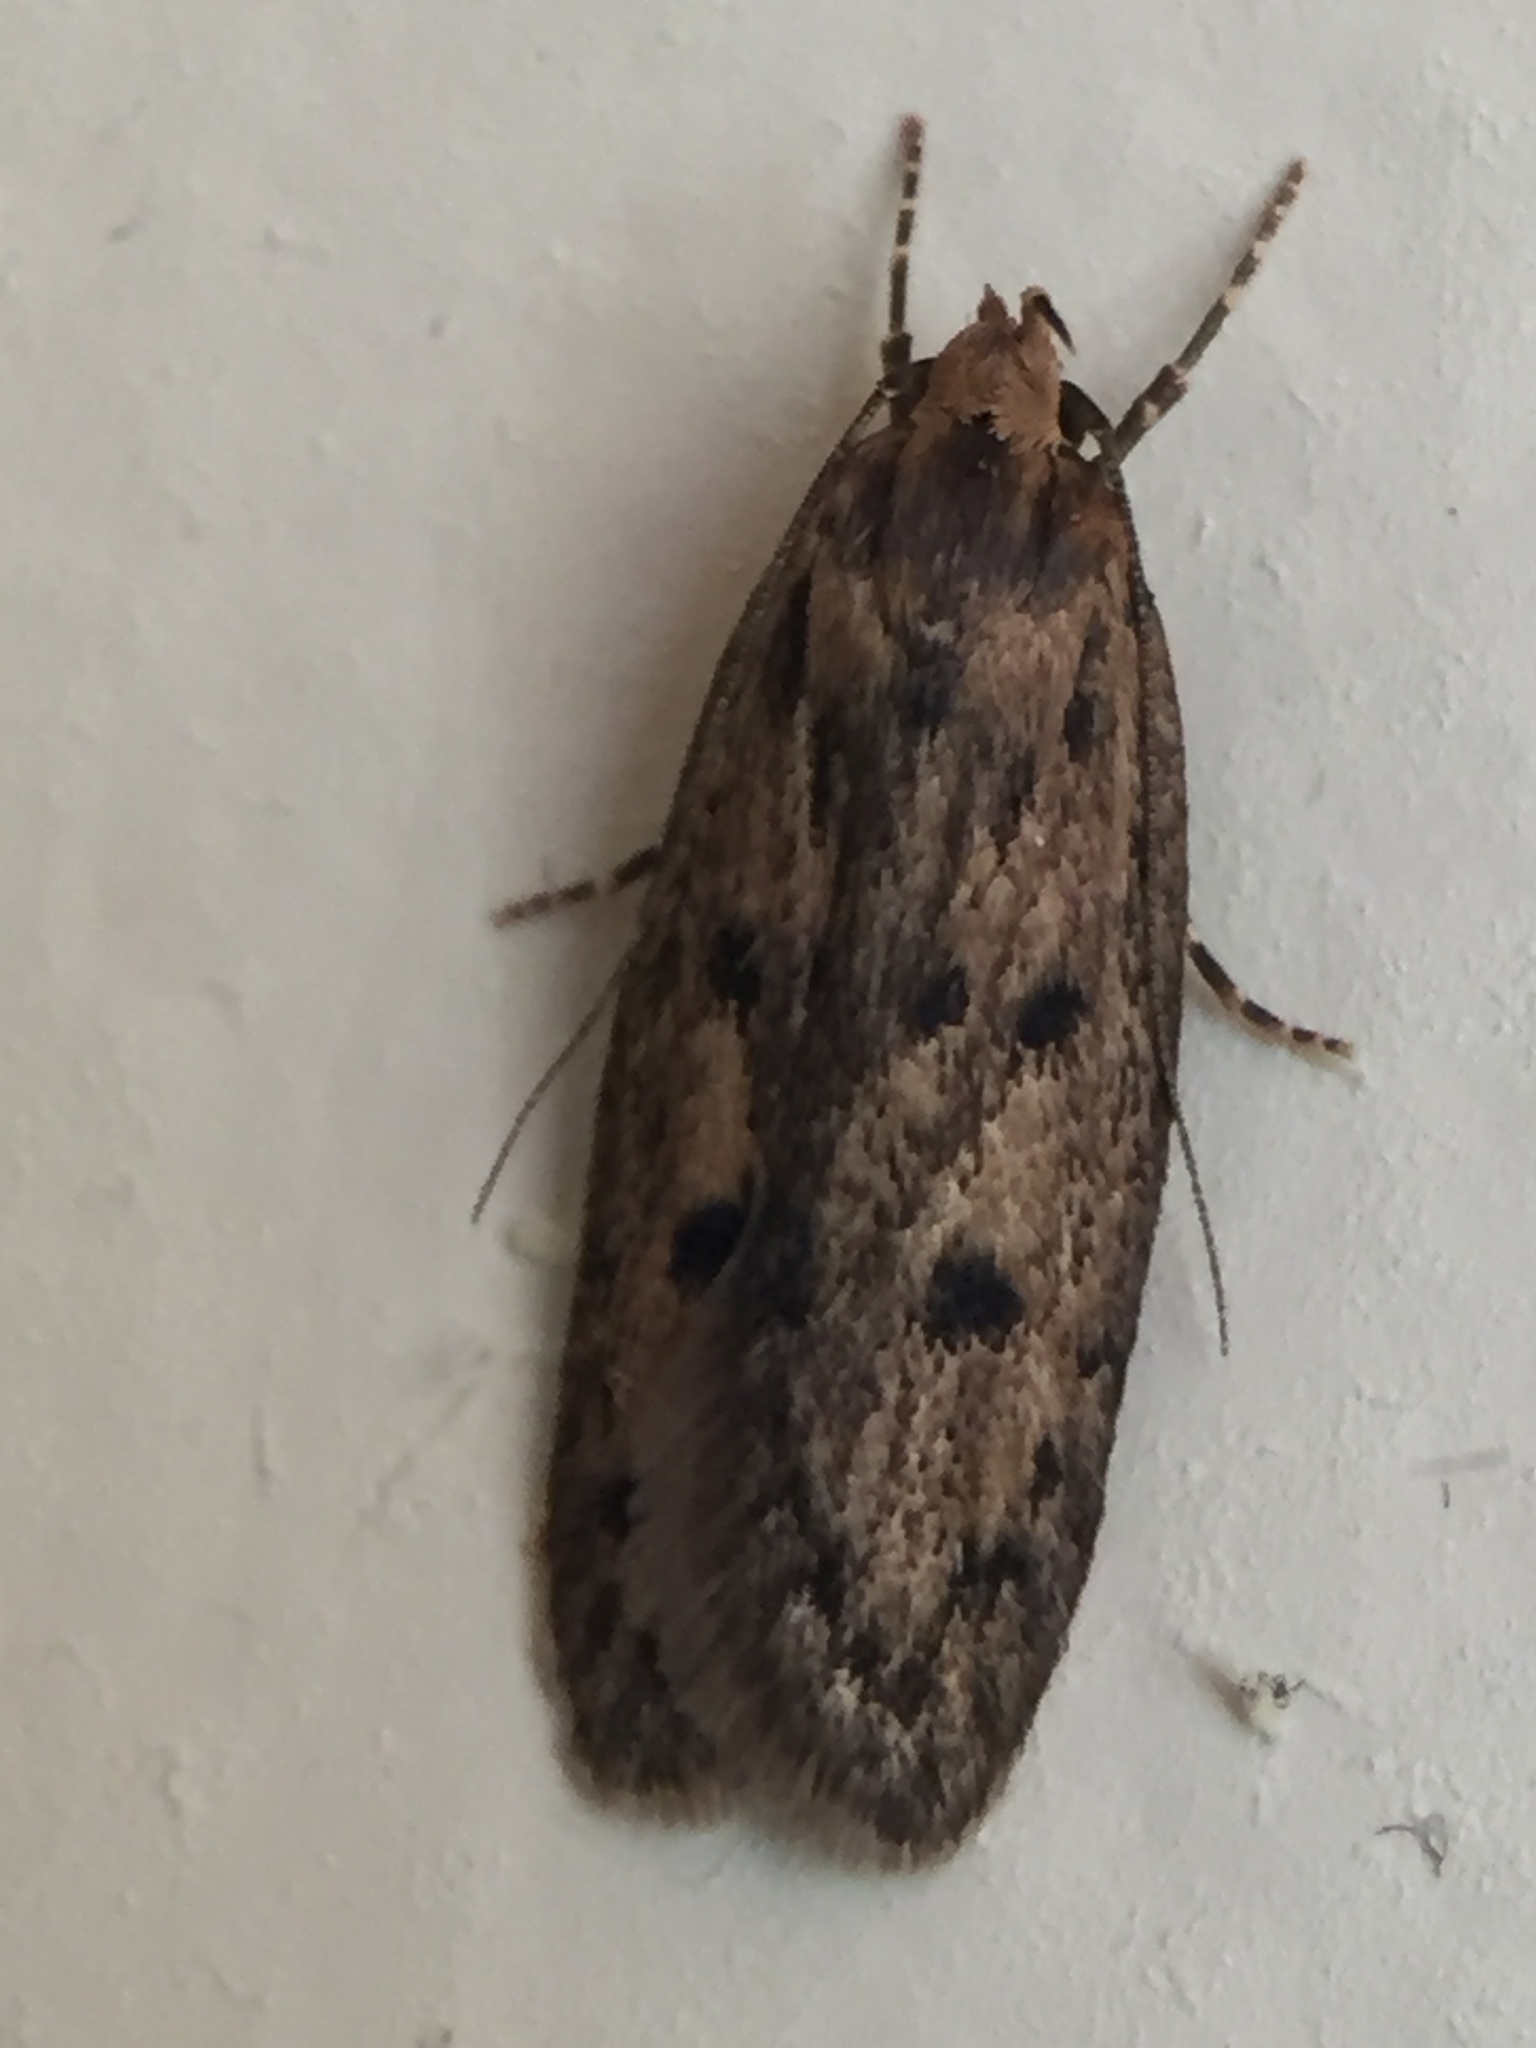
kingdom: Animalia
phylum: Arthropoda
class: Insecta
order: Lepidoptera
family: Oecophoridae
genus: Hofmannophila
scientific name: Hofmannophila pseudospretella
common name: Brown house moth
